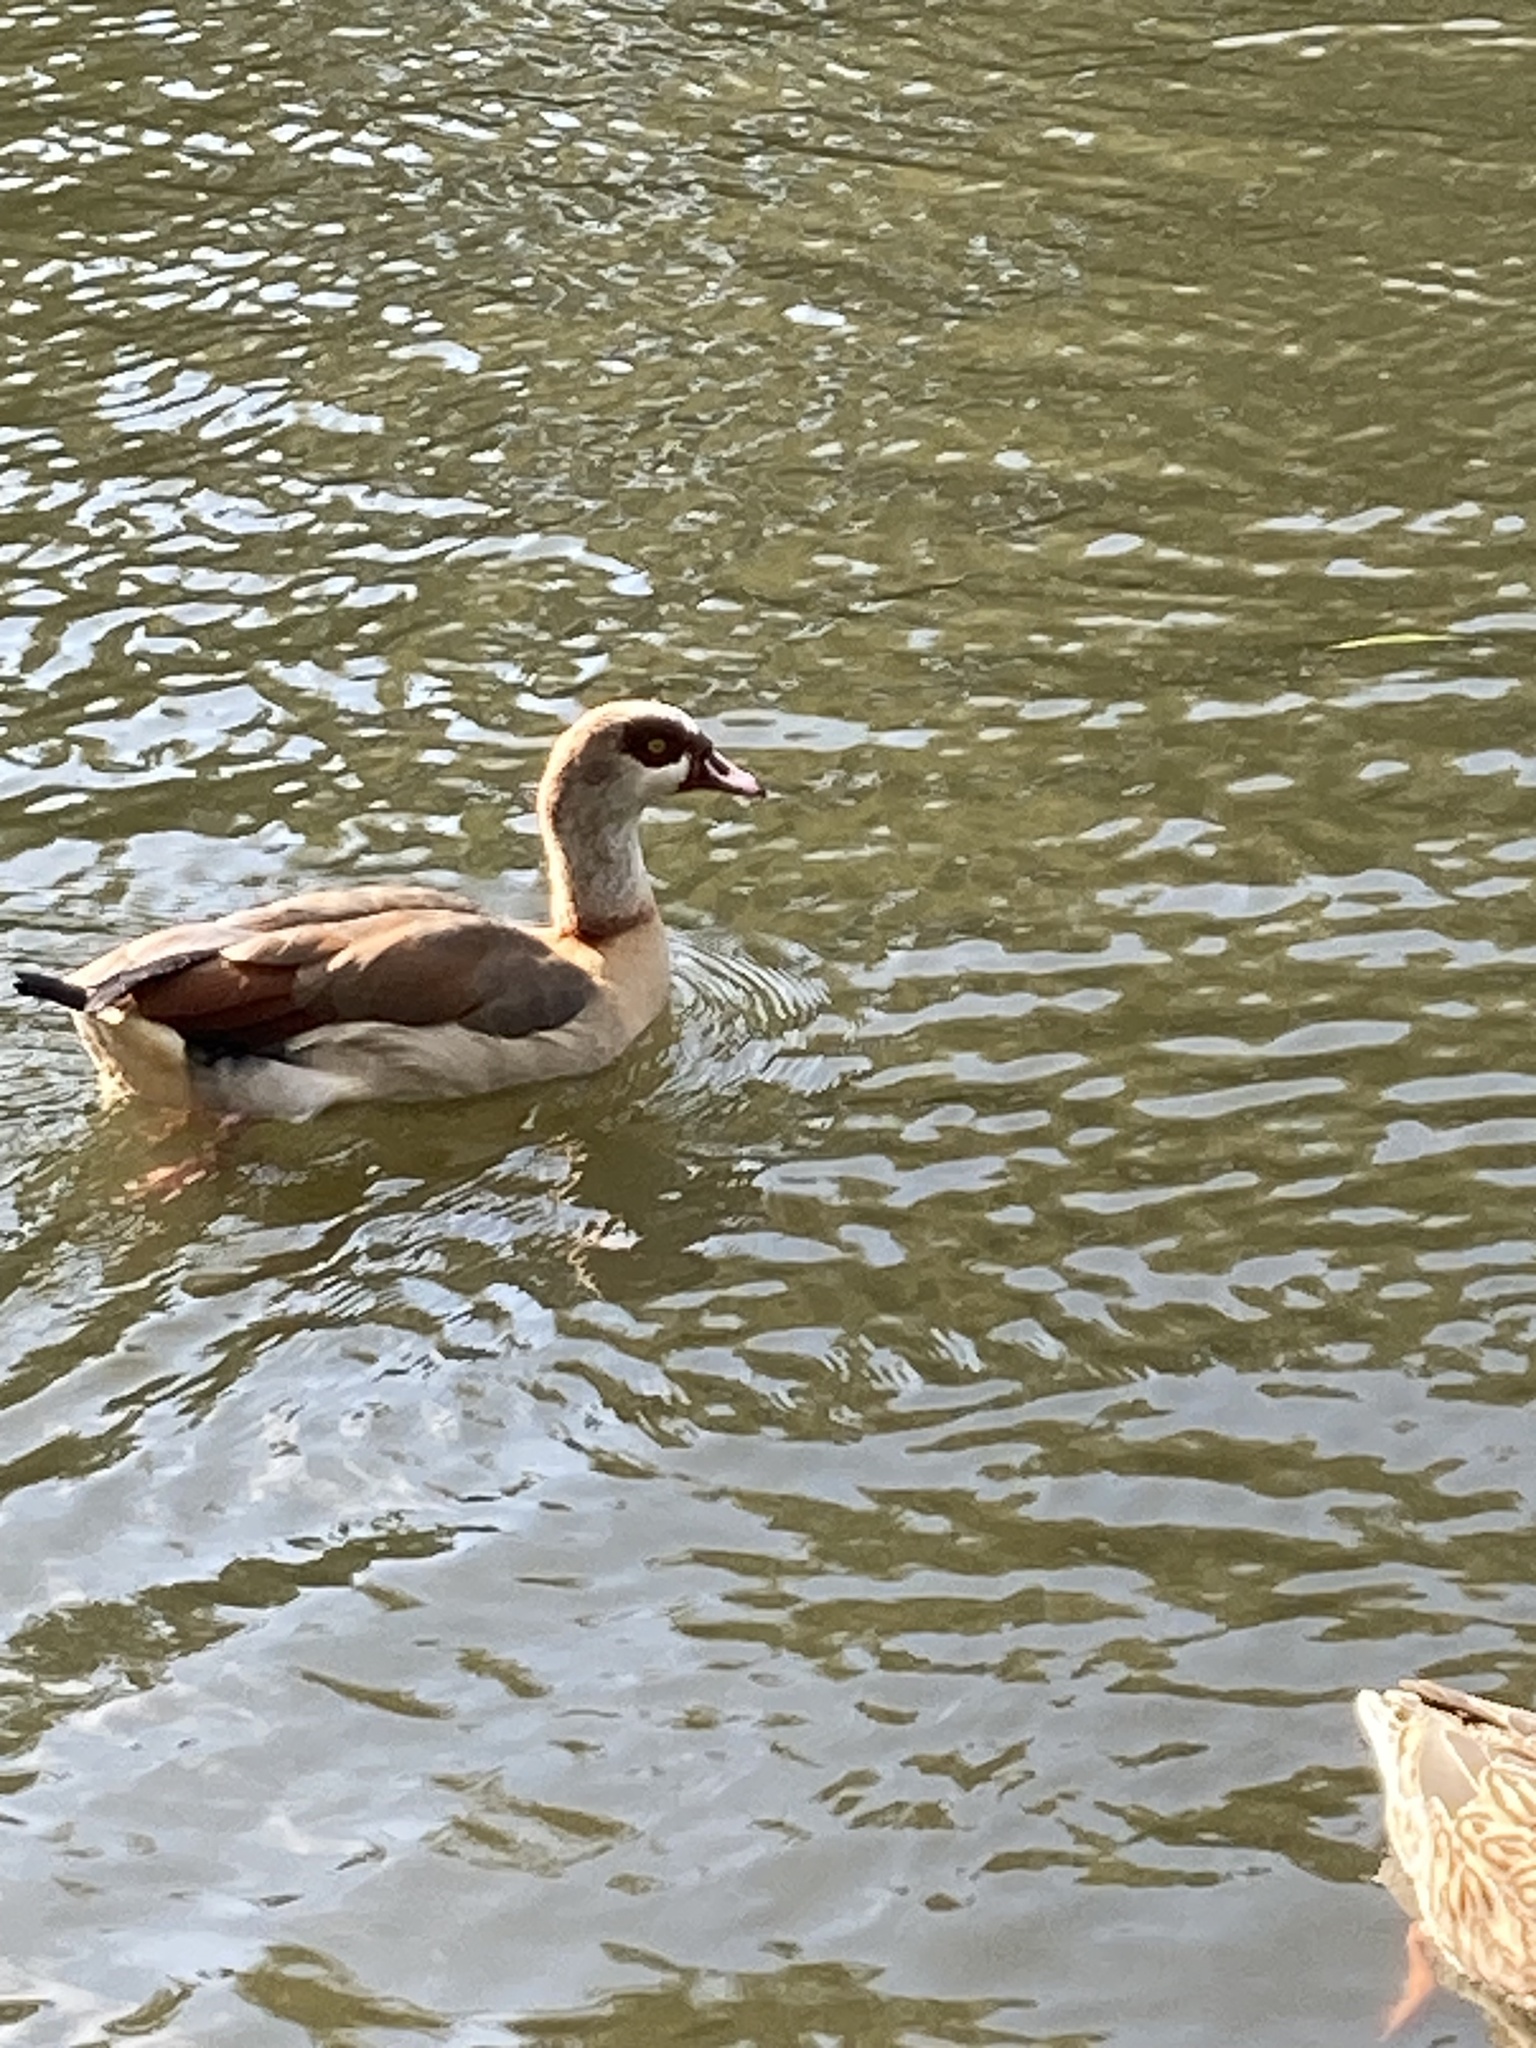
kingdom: Animalia
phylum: Chordata
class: Aves
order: Anseriformes
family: Anatidae
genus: Alopochen
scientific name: Alopochen aegyptiaca
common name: Egyptian goose
